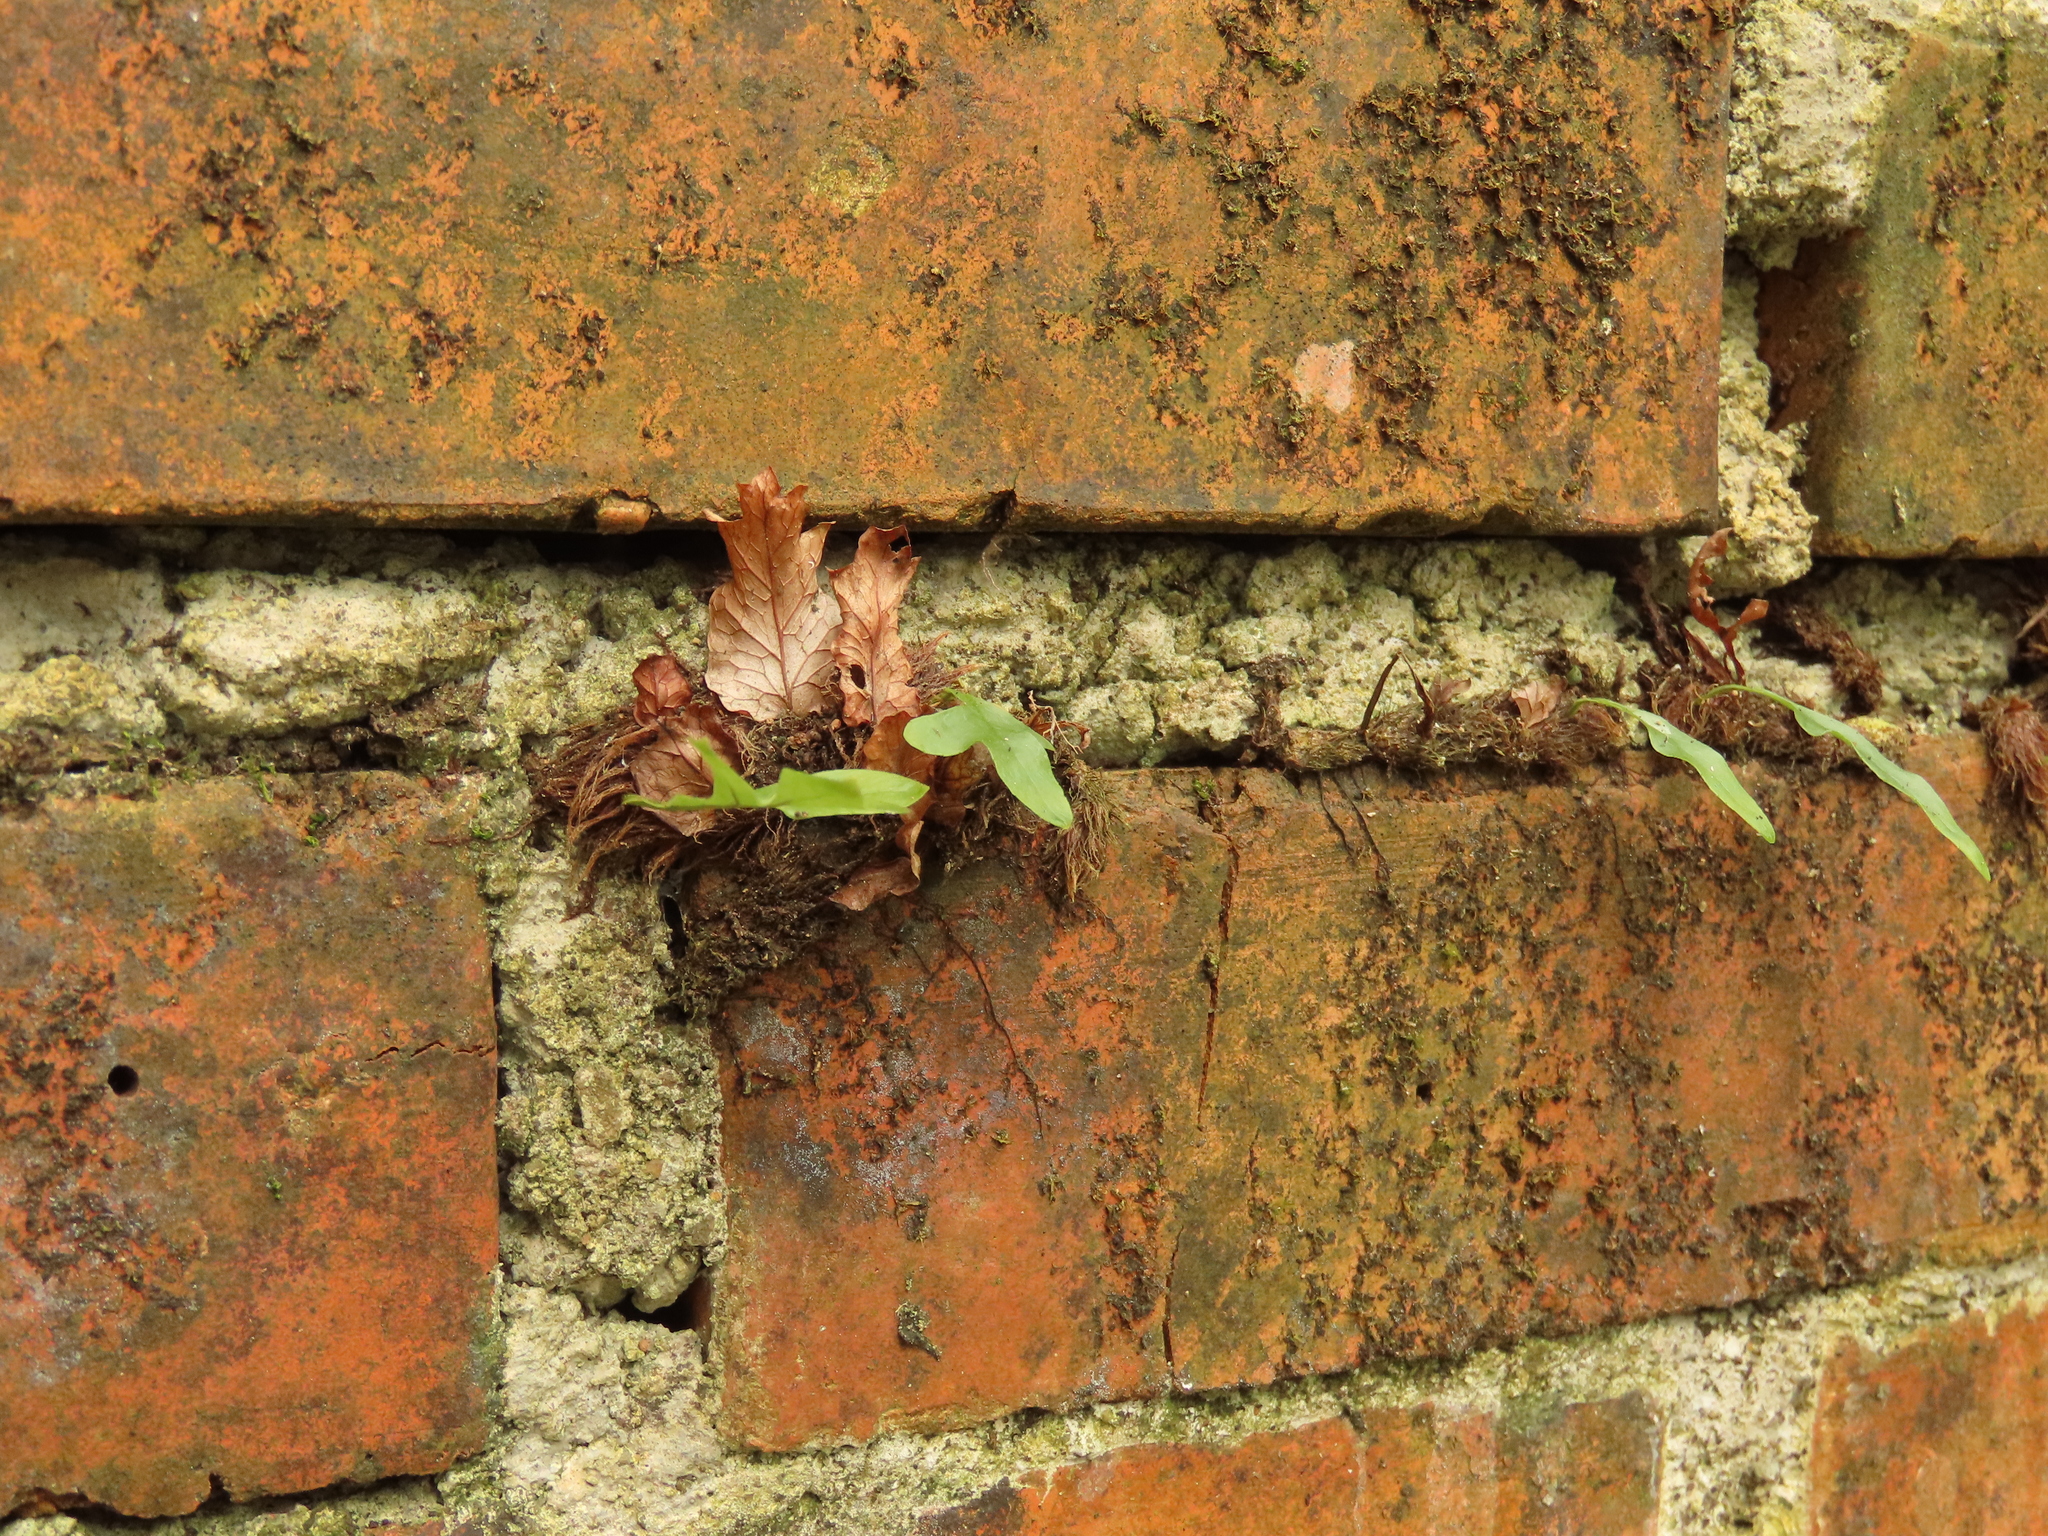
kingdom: Plantae
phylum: Tracheophyta
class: Polypodiopsida
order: Polypodiales
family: Polypodiaceae
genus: Drynaria
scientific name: Drynaria roosii
